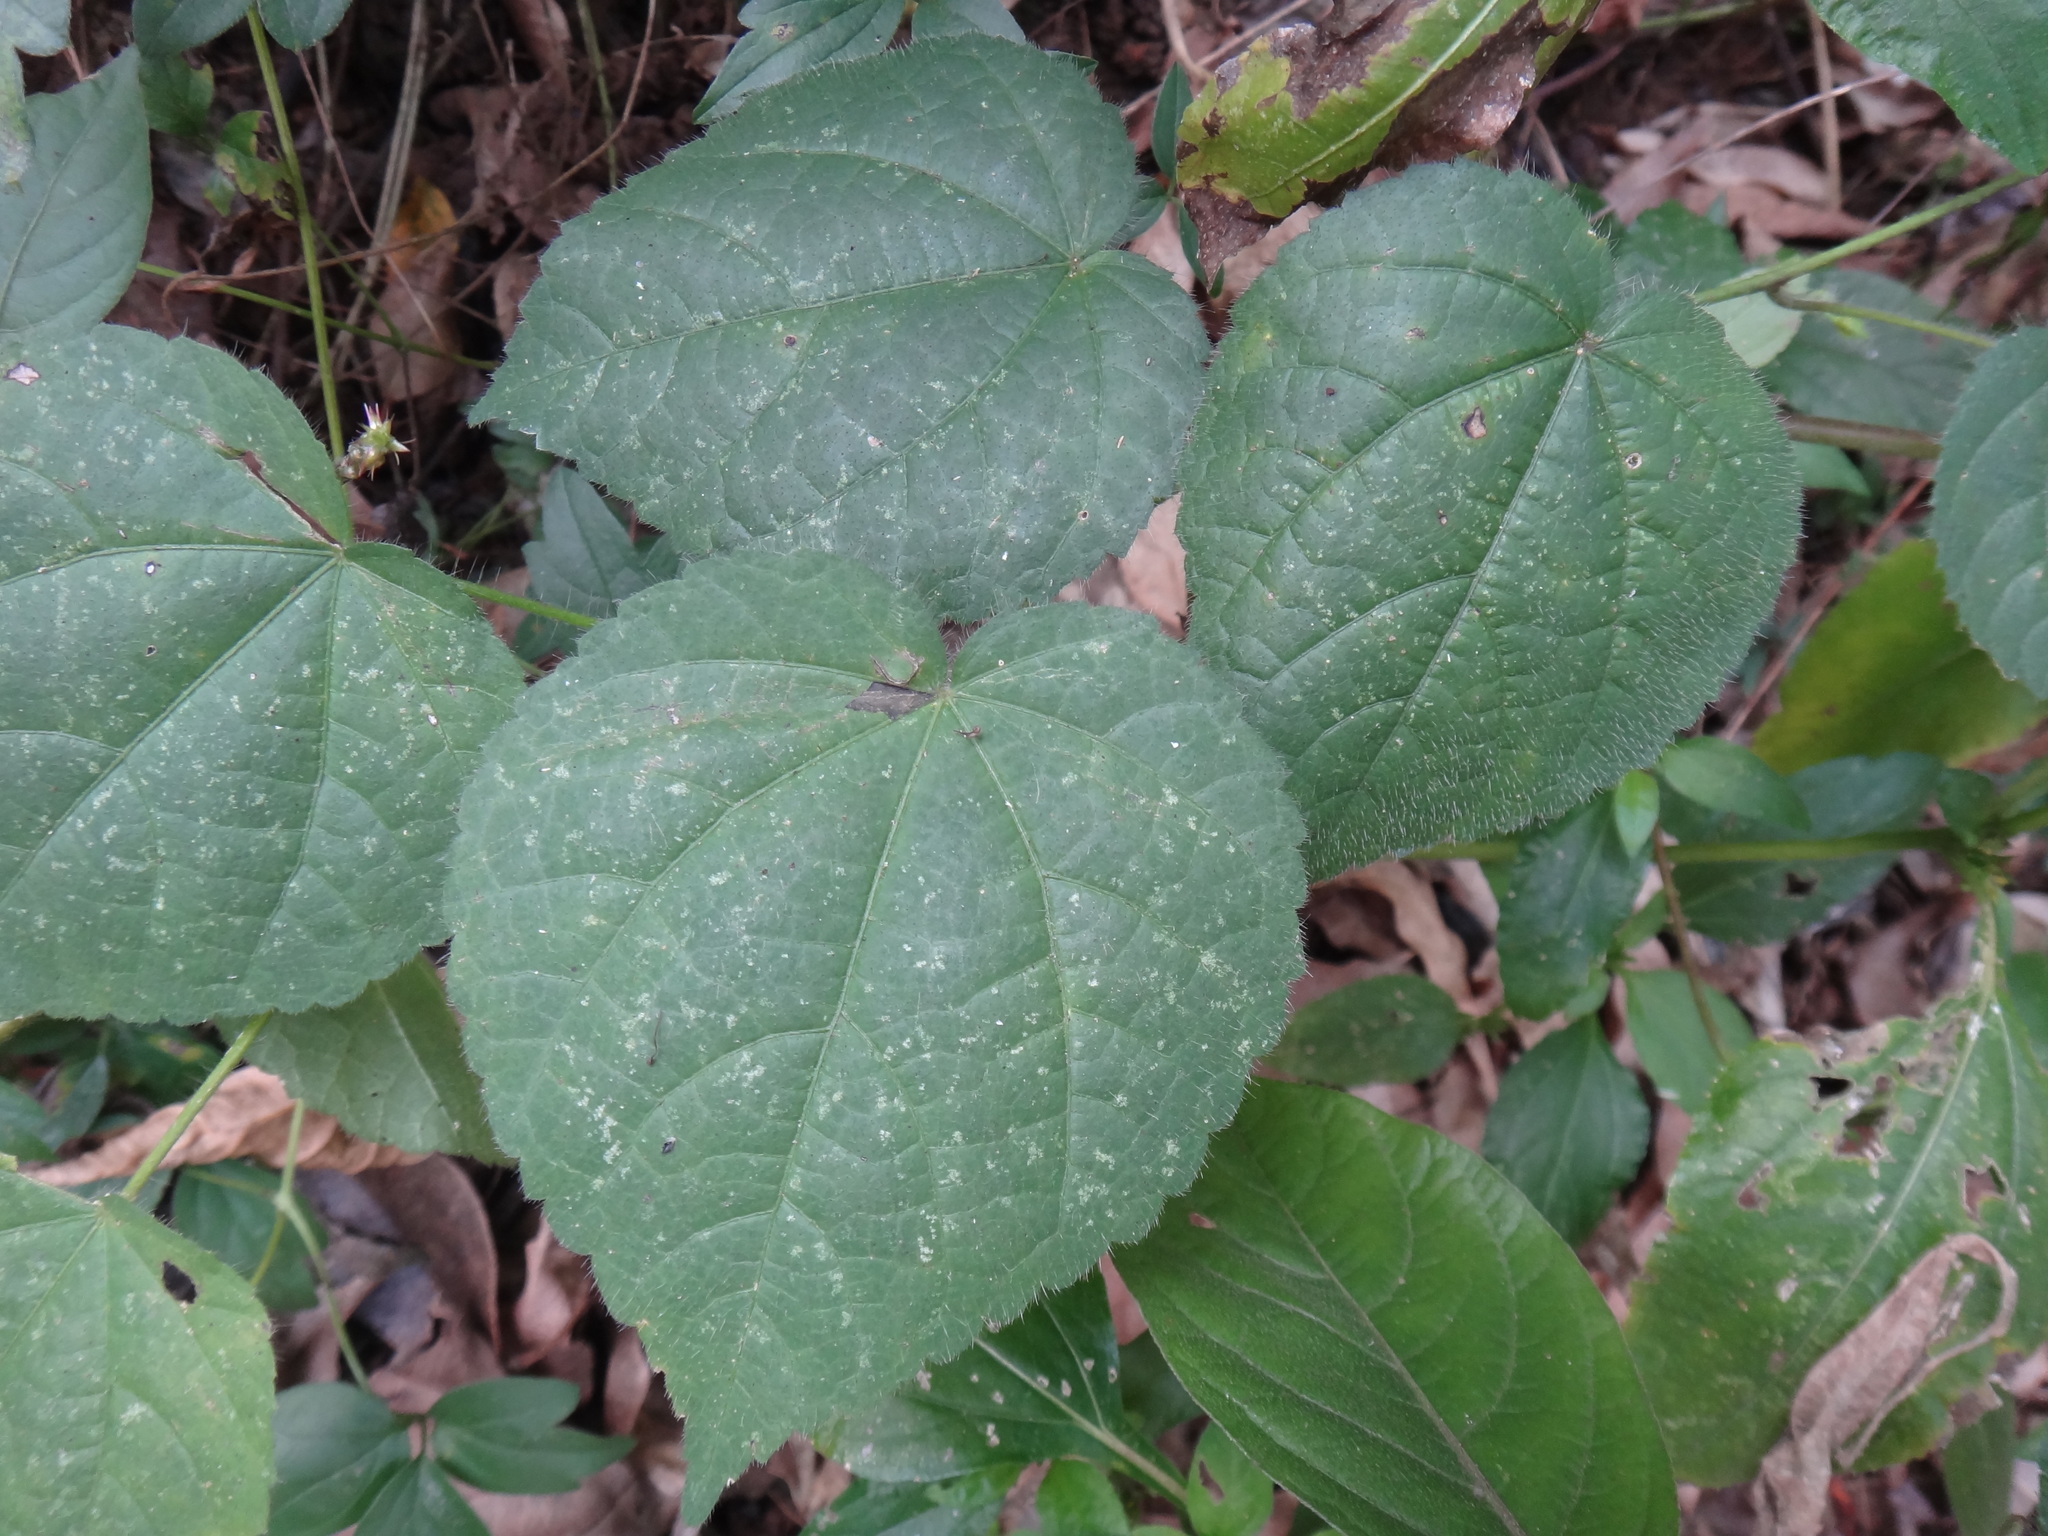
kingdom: Plantae
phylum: Tracheophyta
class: Magnoliopsida
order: Malvales
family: Malvaceae
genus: Sida
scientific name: Sida cordata
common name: Long-stalk sida
